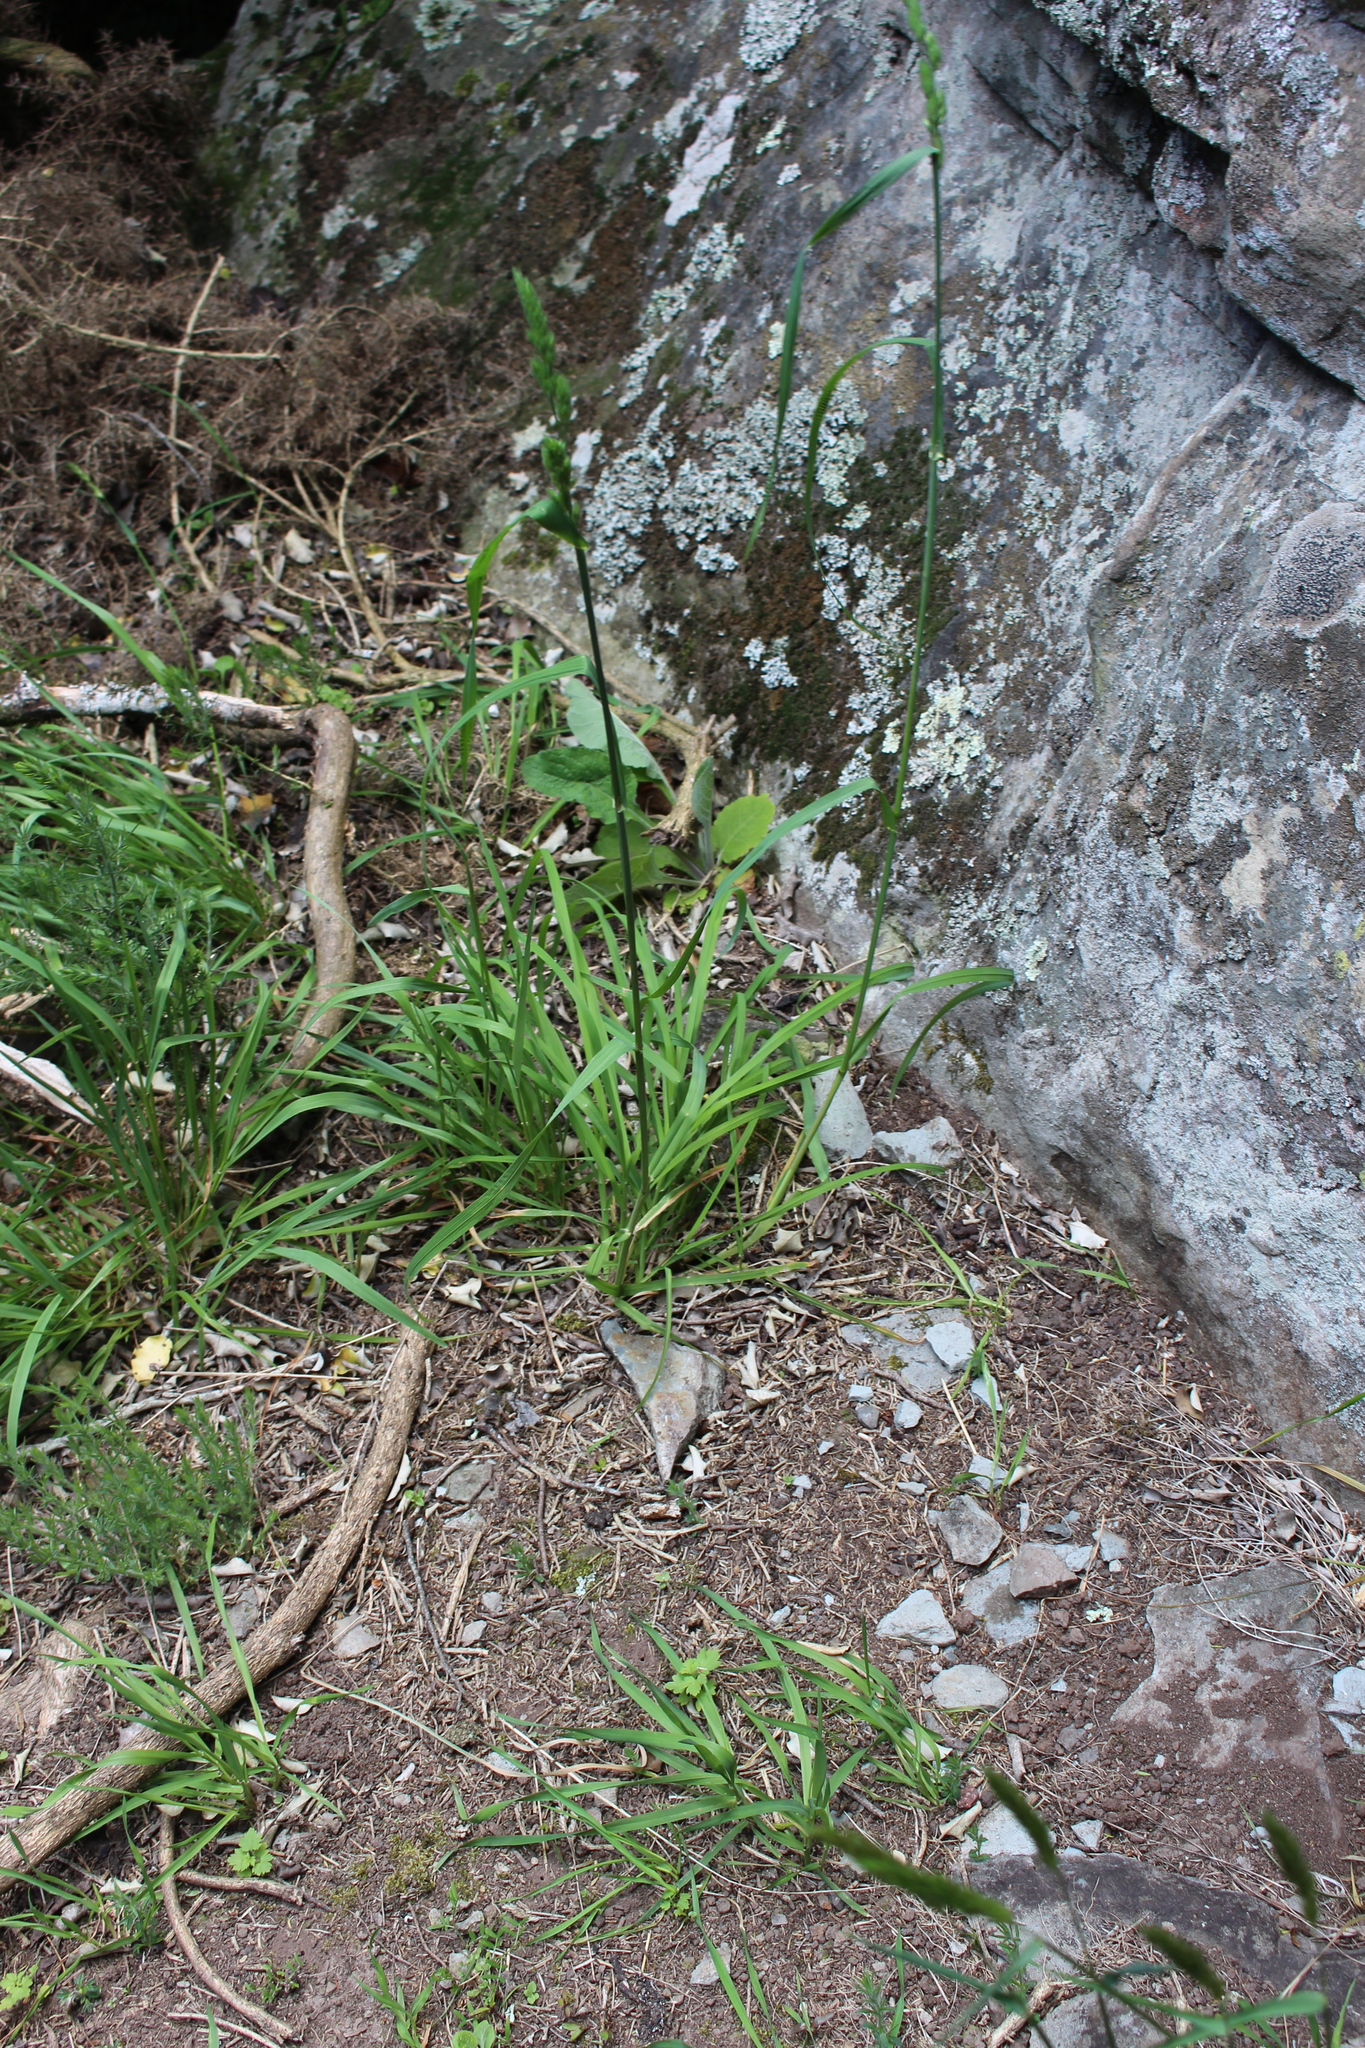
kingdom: Plantae
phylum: Tracheophyta
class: Liliopsida
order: Poales
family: Poaceae
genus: Dactylis
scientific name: Dactylis glomerata
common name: Orchardgrass
